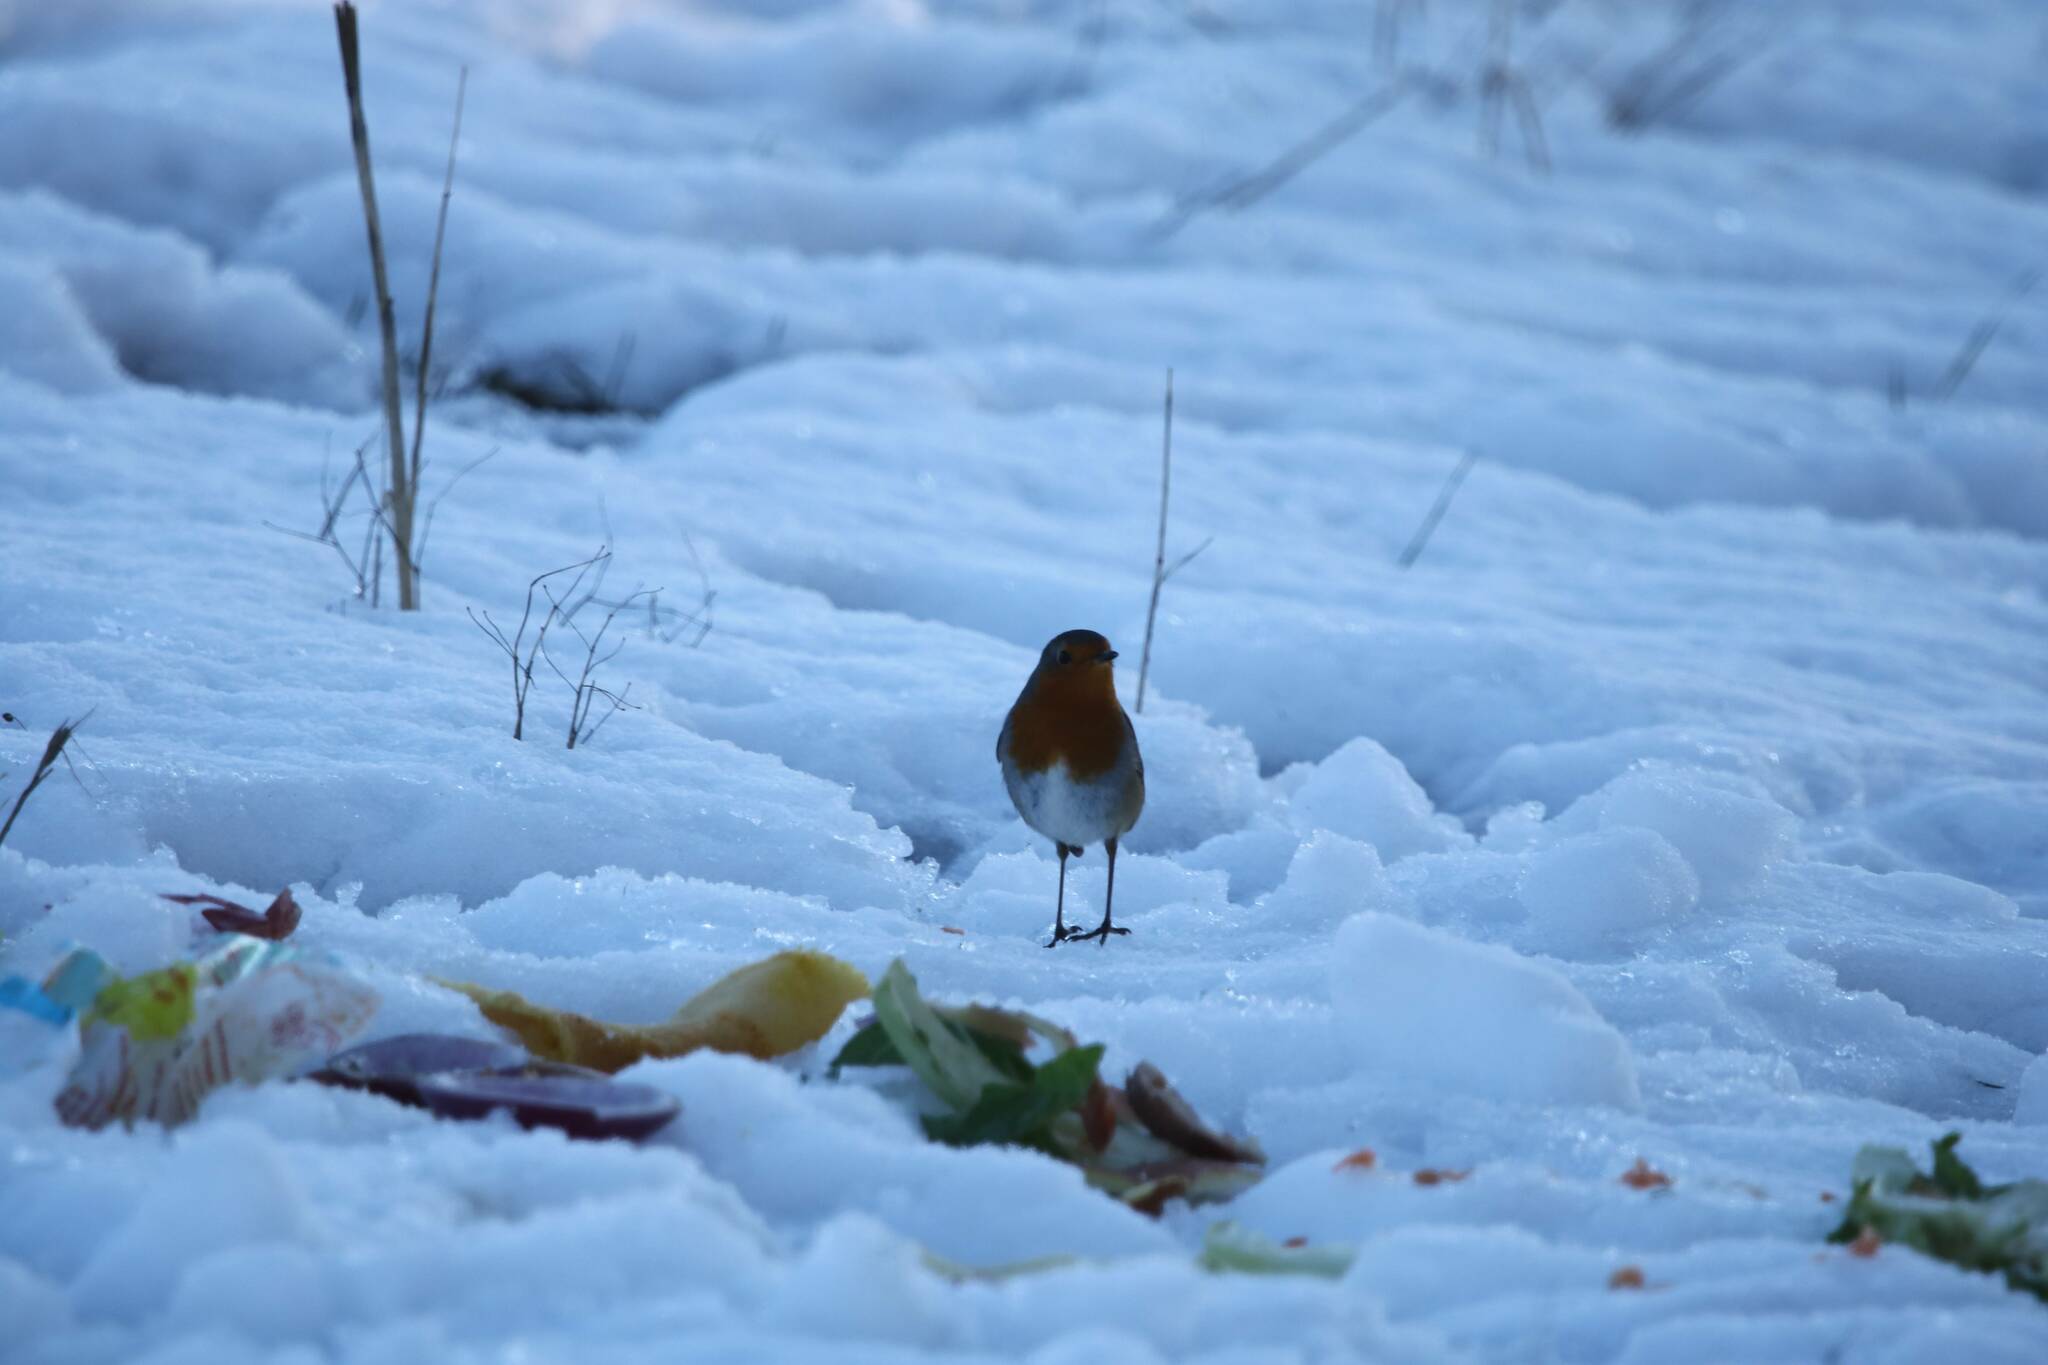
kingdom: Animalia
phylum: Chordata
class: Aves
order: Passeriformes
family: Muscicapidae
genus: Erithacus
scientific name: Erithacus rubecula
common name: European robin
